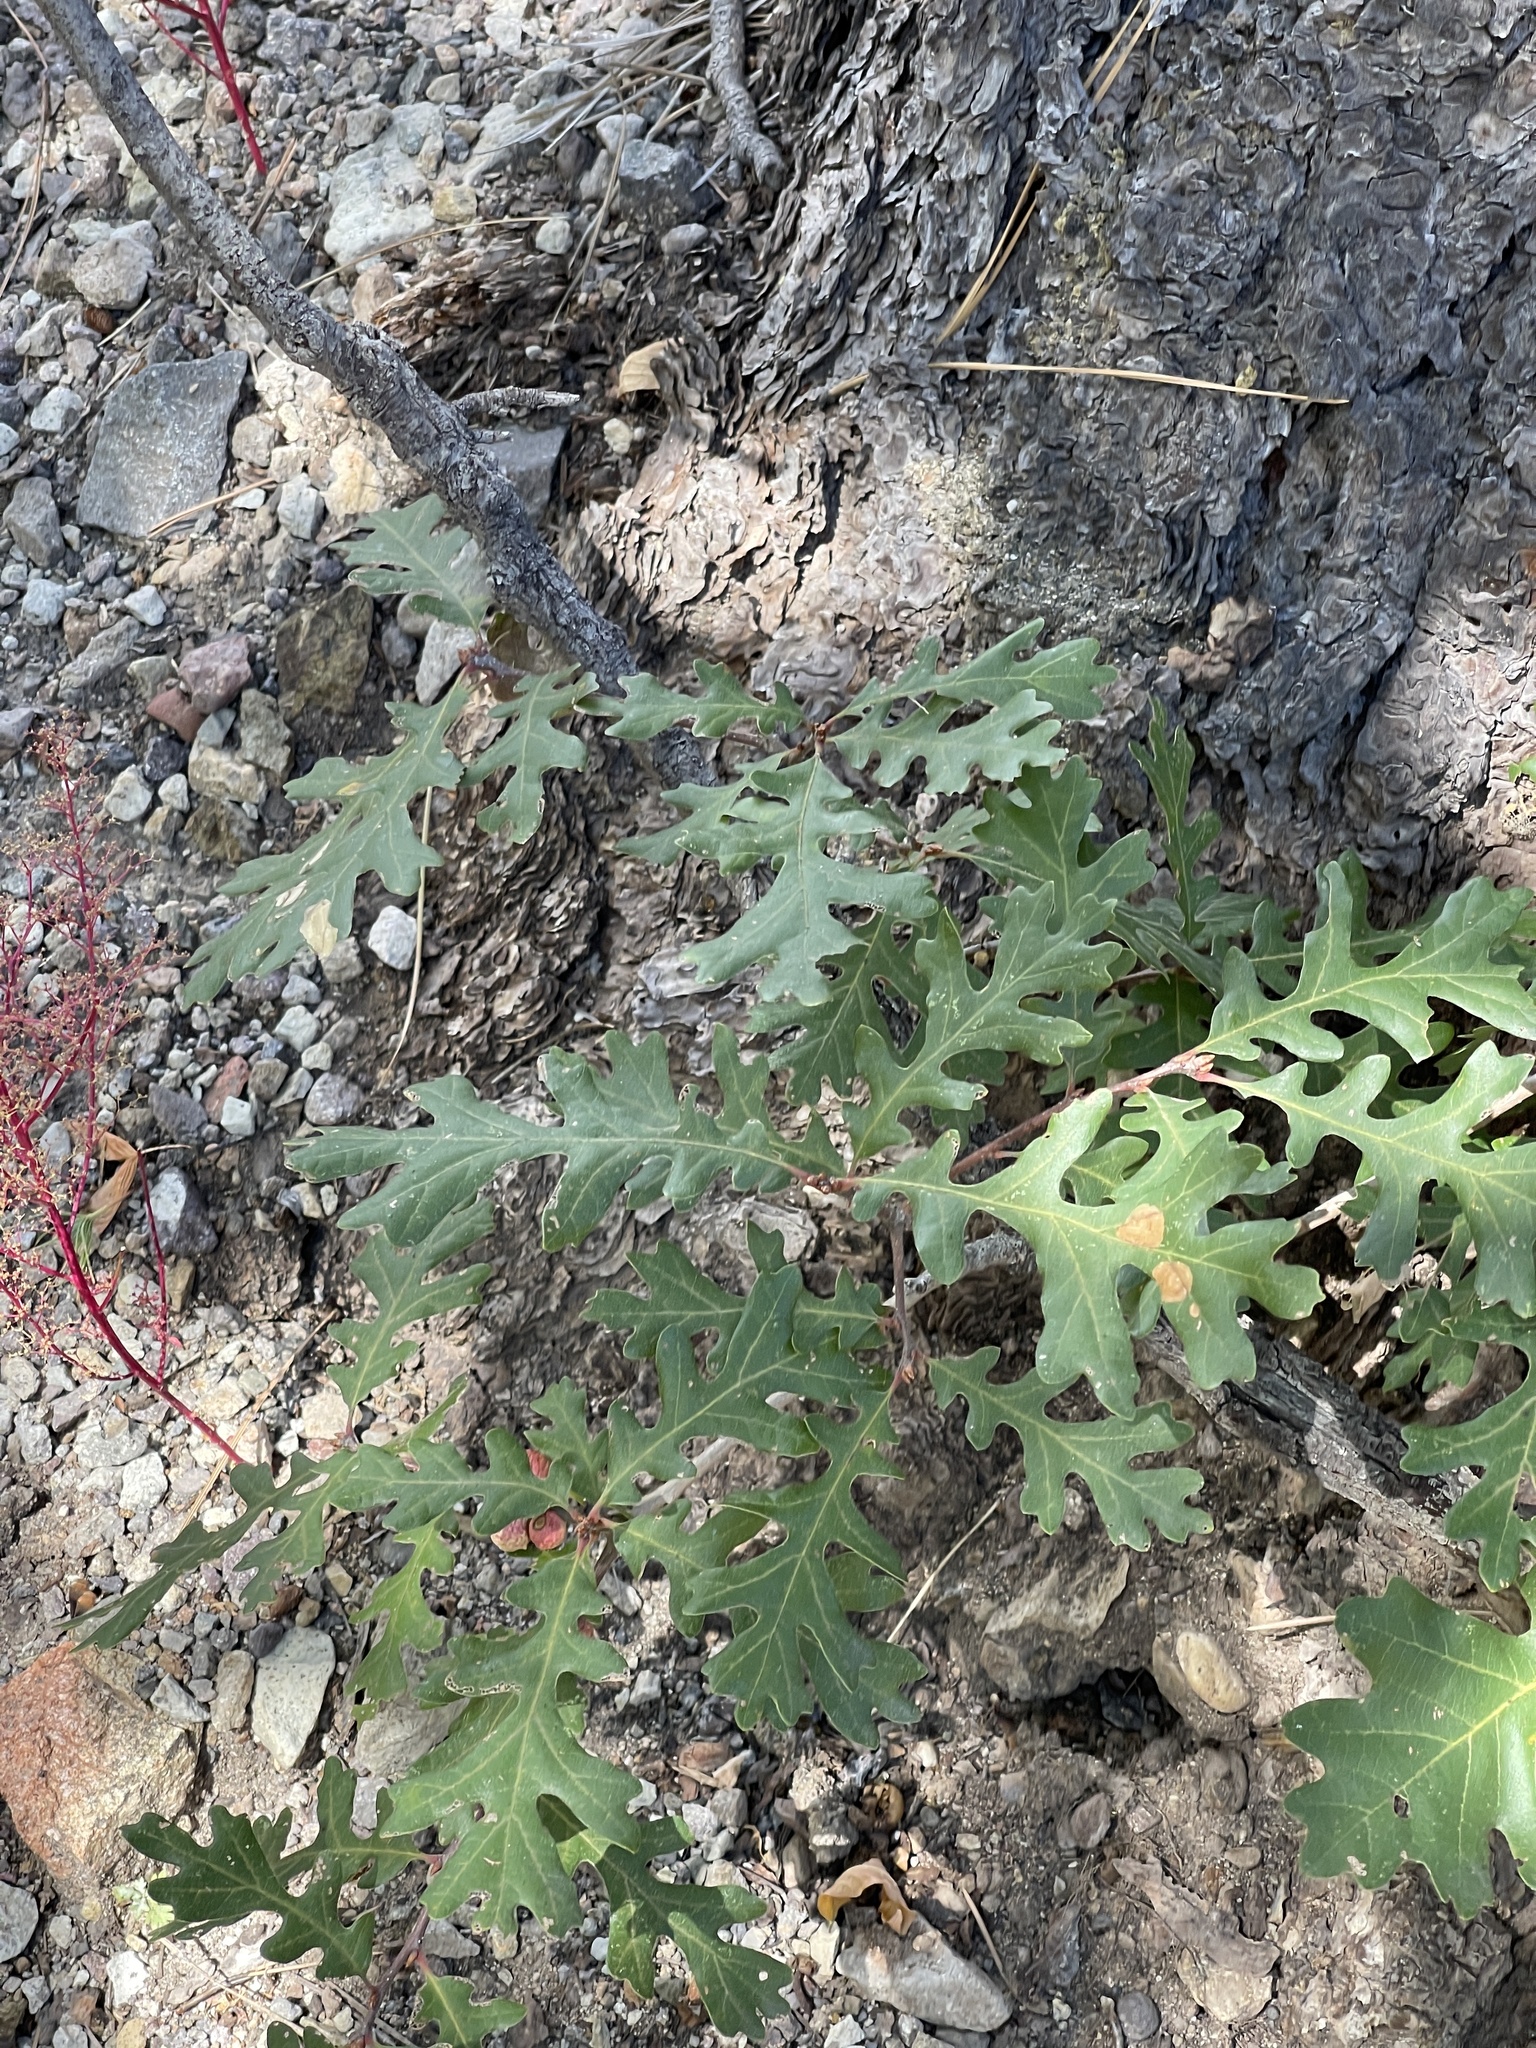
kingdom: Plantae
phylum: Tracheophyta
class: Magnoliopsida
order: Fagales
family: Fagaceae
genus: Quercus
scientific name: Quercus gambelii
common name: Gambel oak
